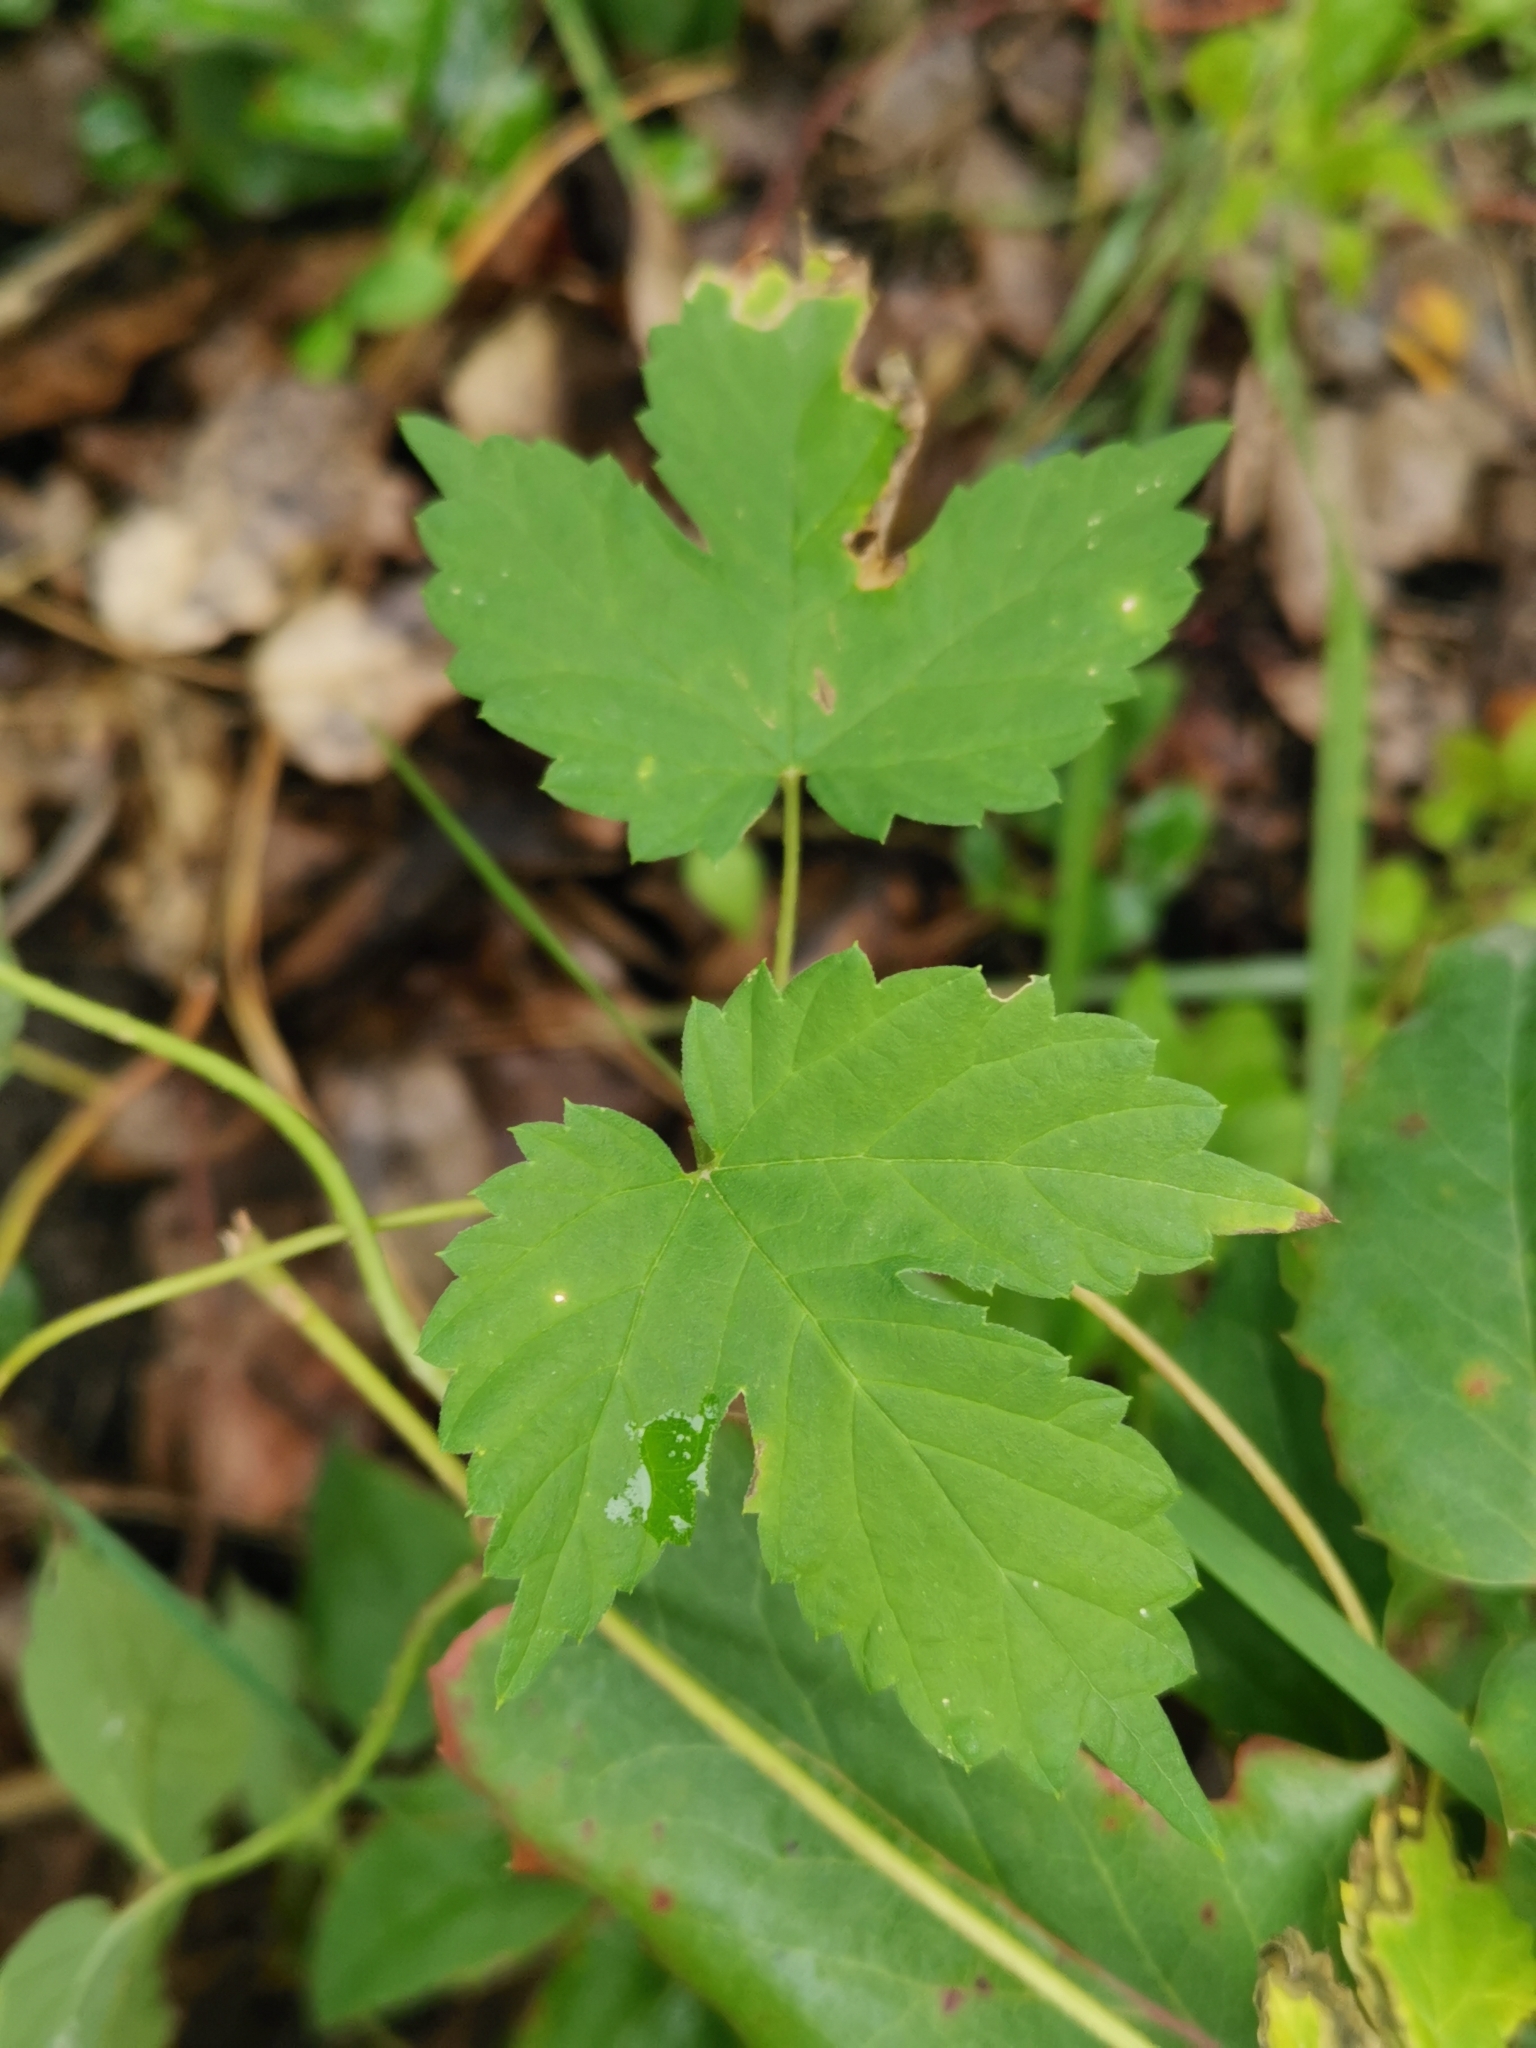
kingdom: Plantae
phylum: Tracheophyta
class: Magnoliopsida
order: Rosales
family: Cannabaceae
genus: Humulus
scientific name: Humulus lupulus
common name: Hop
